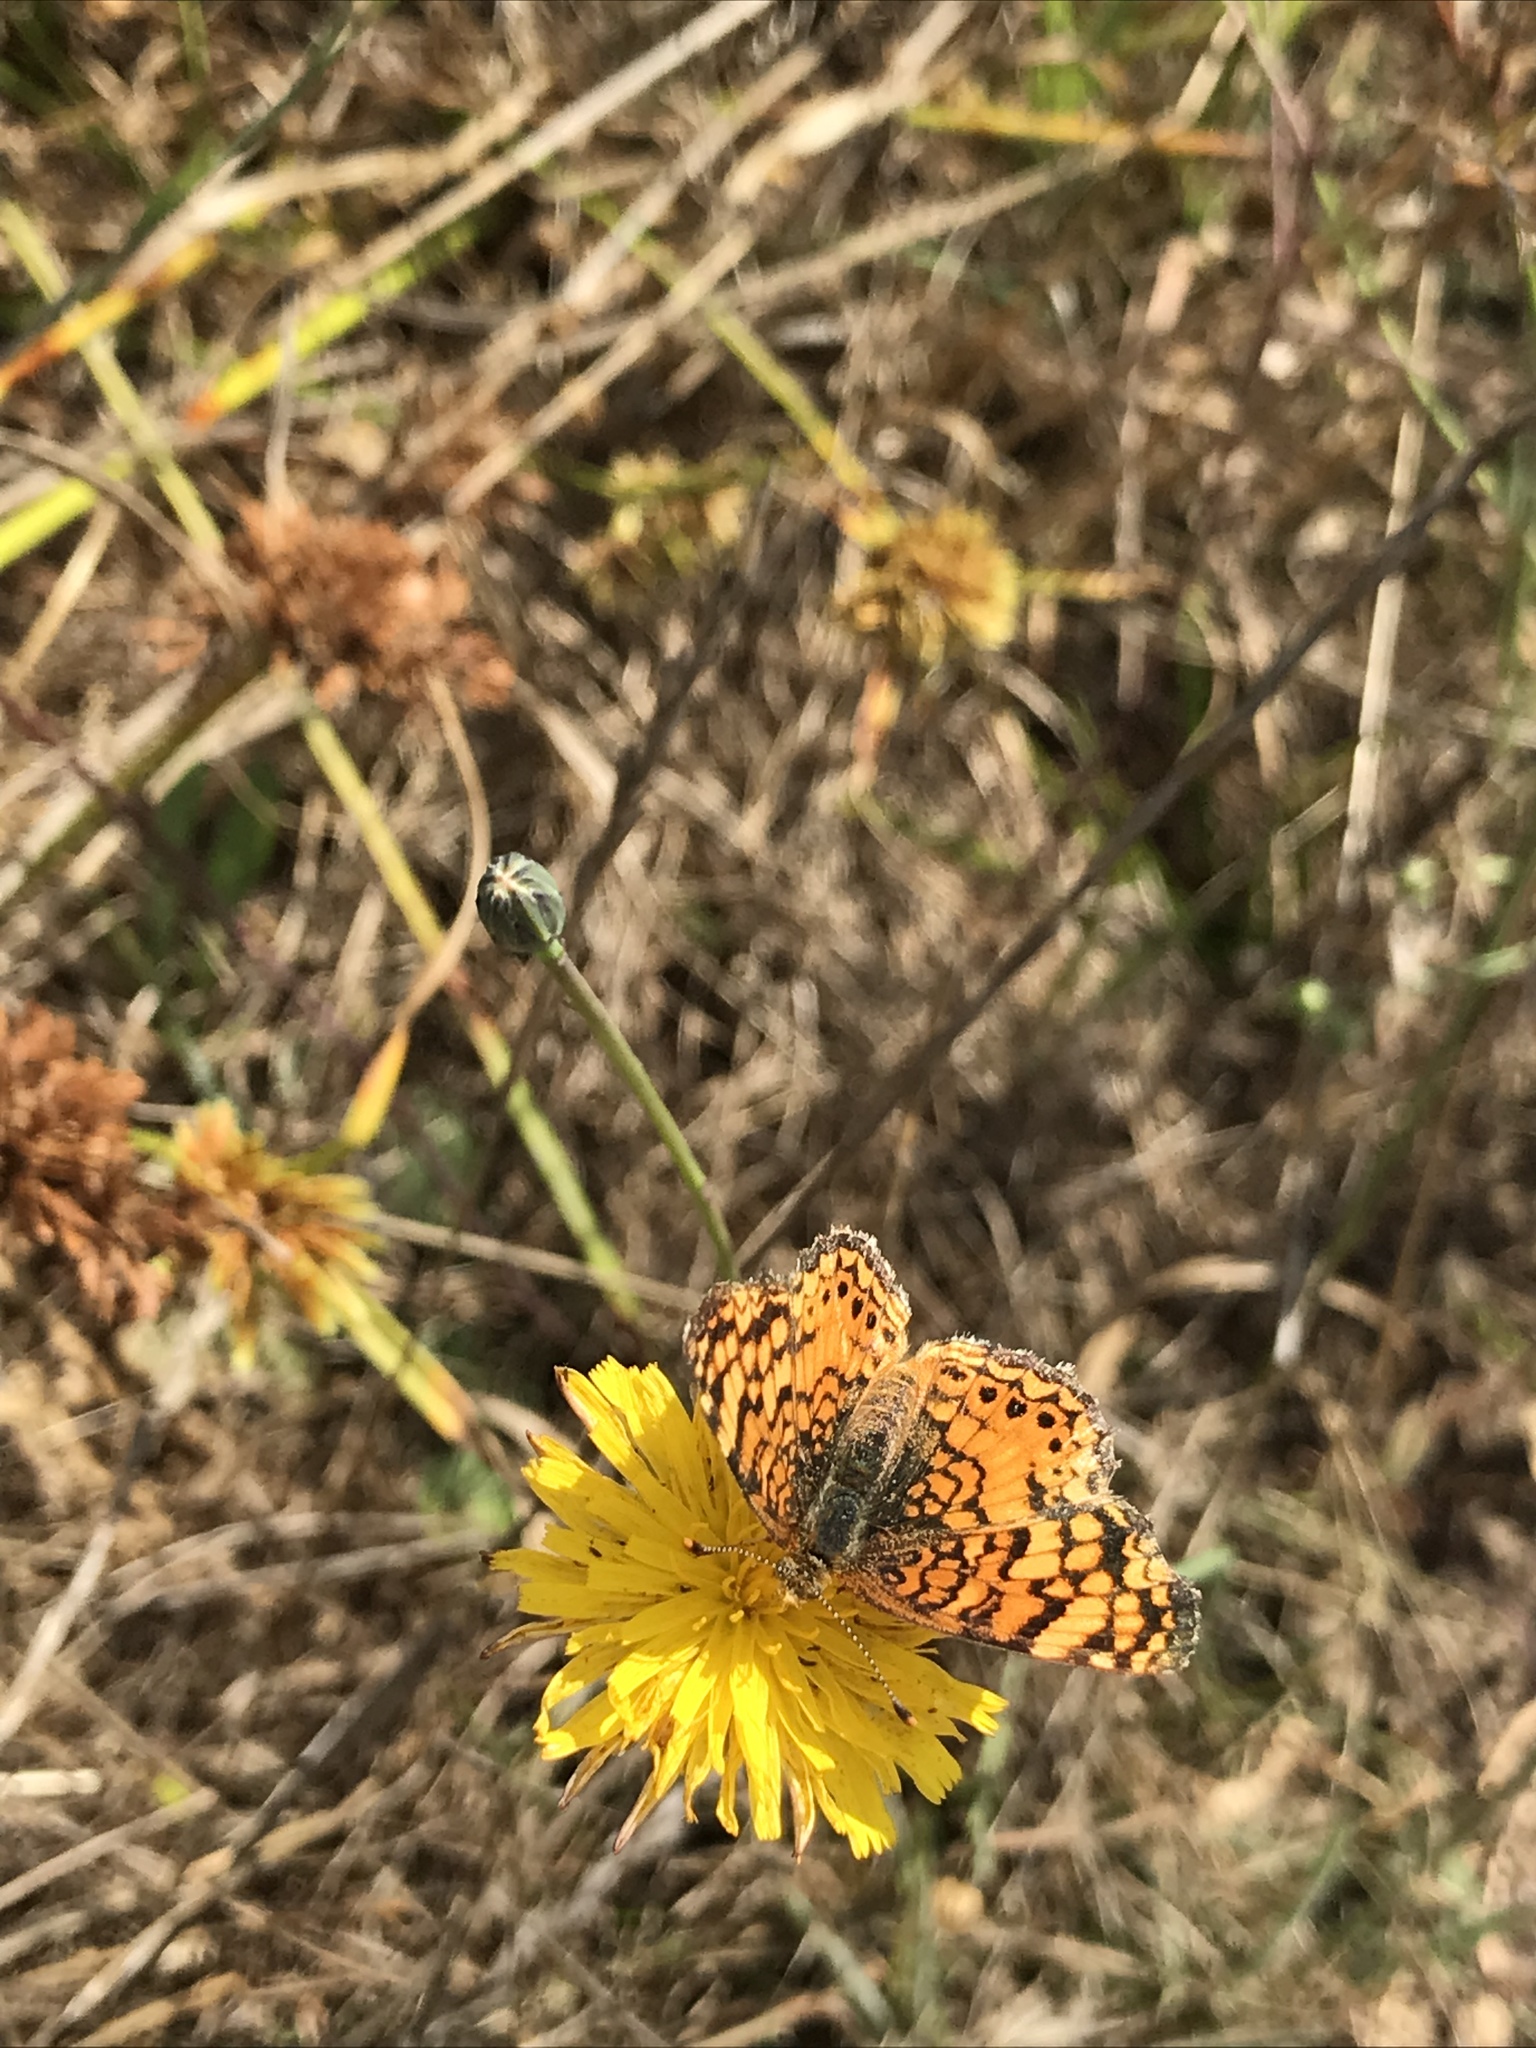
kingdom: Animalia
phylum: Arthropoda
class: Insecta
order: Lepidoptera
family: Nymphalidae
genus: Eresia
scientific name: Eresia aveyrona
